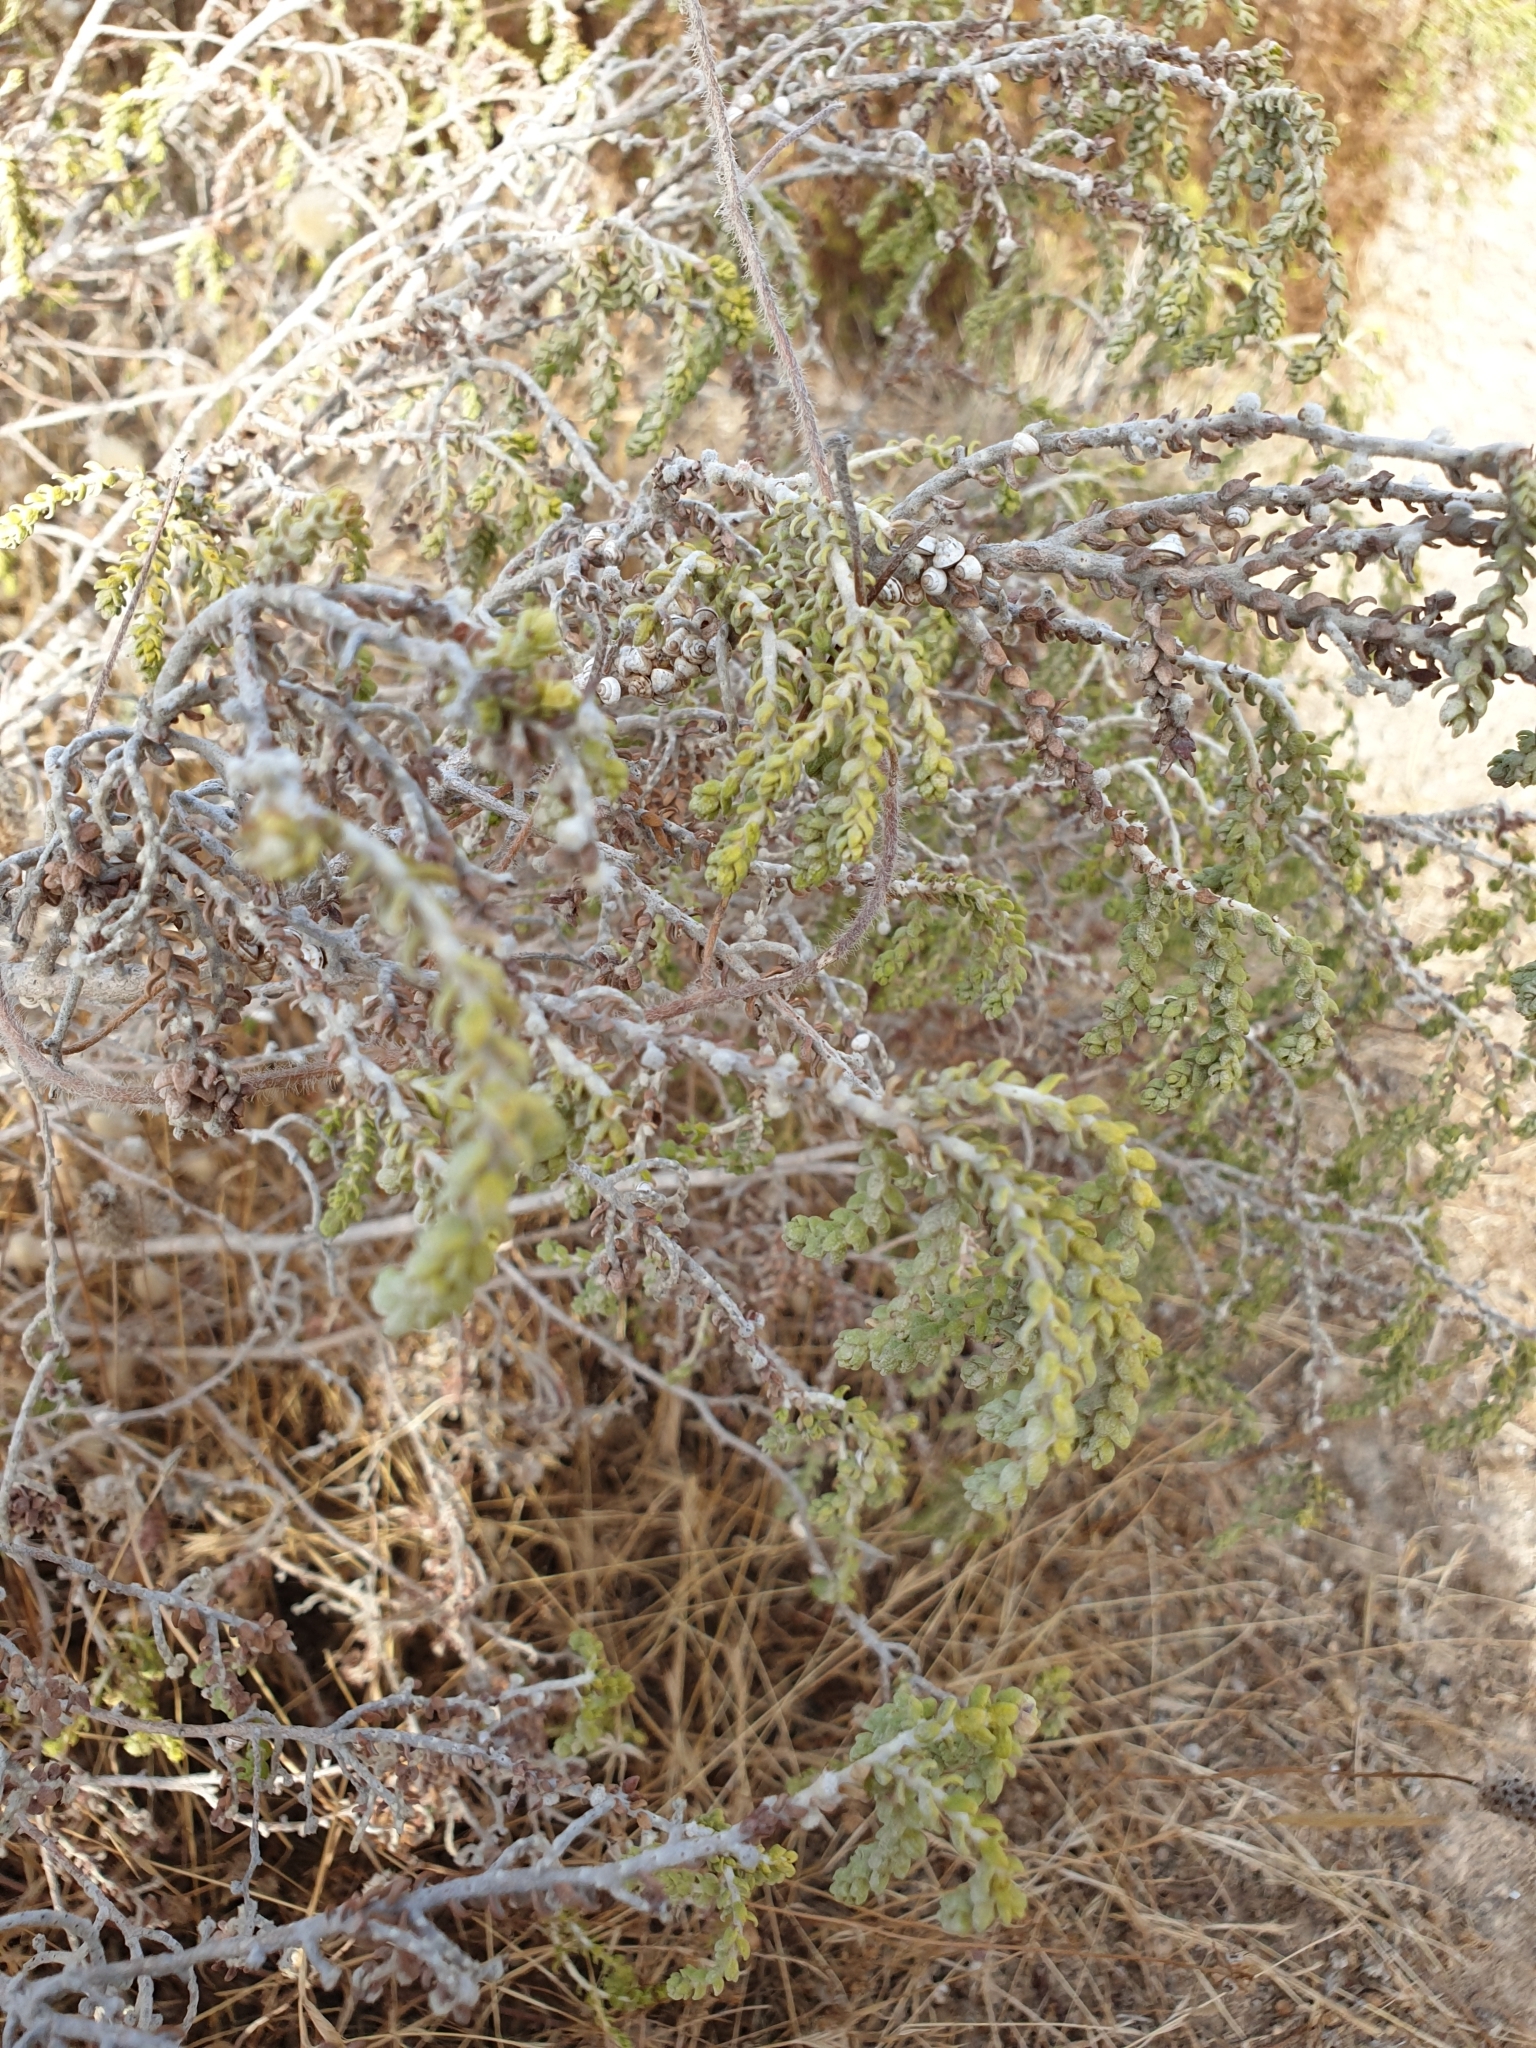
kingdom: Plantae
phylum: Tracheophyta
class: Magnoliopsida
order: Malvales
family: Thymelaeaceae
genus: Thymelaea
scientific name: Thymelaea hirsuta
